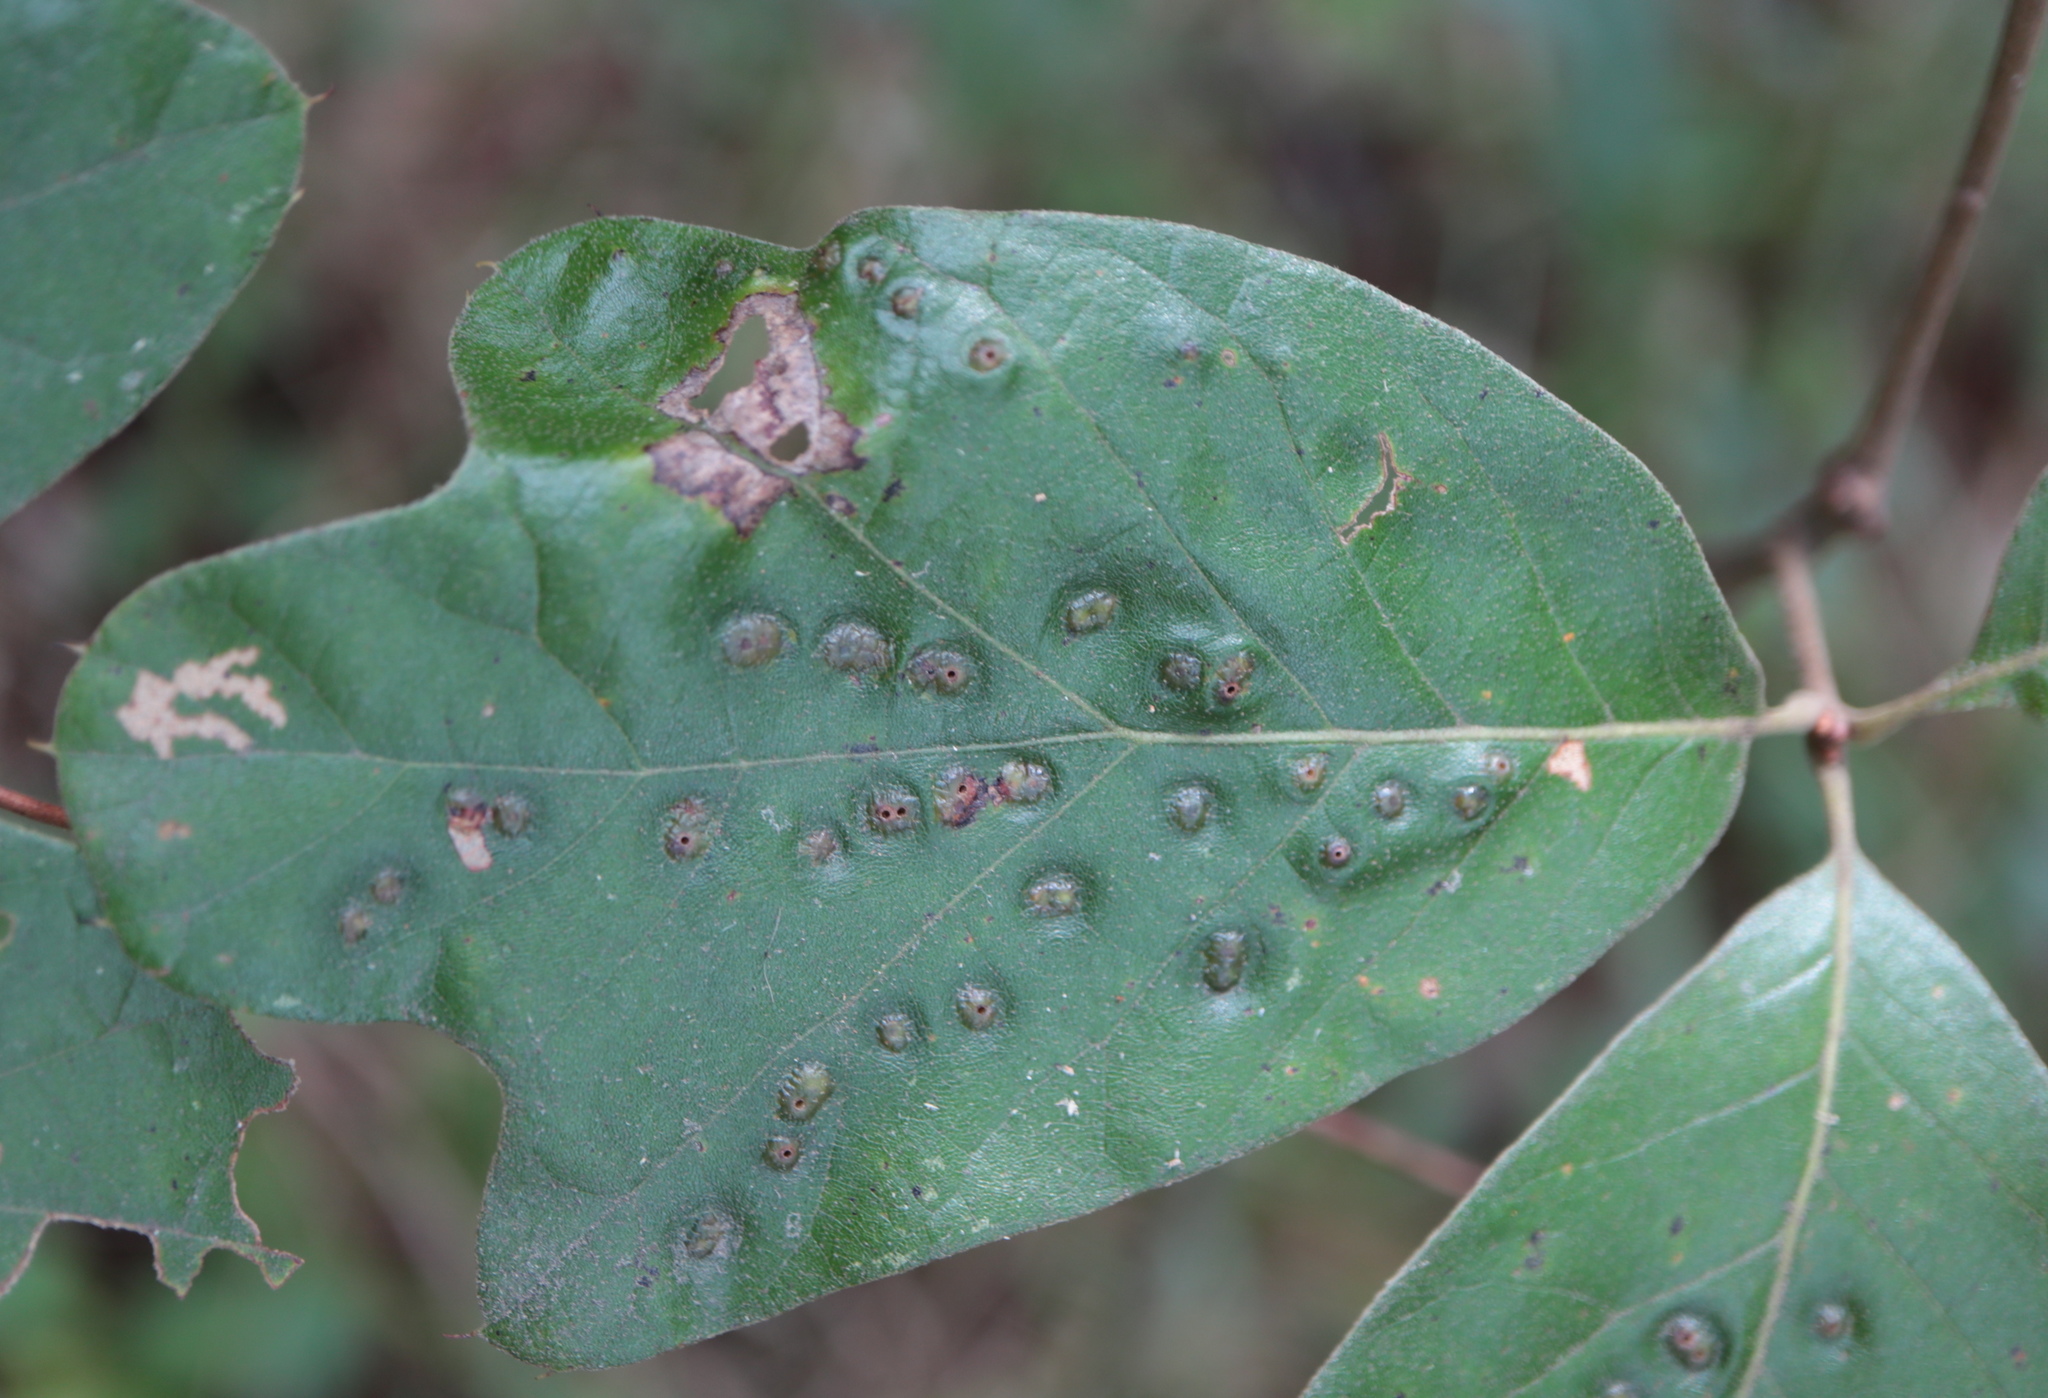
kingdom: Animalia
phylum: Arthropoda
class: Insecta
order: Hymenoptera
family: Cynipidae
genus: Callirhytis
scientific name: Callirhytis
